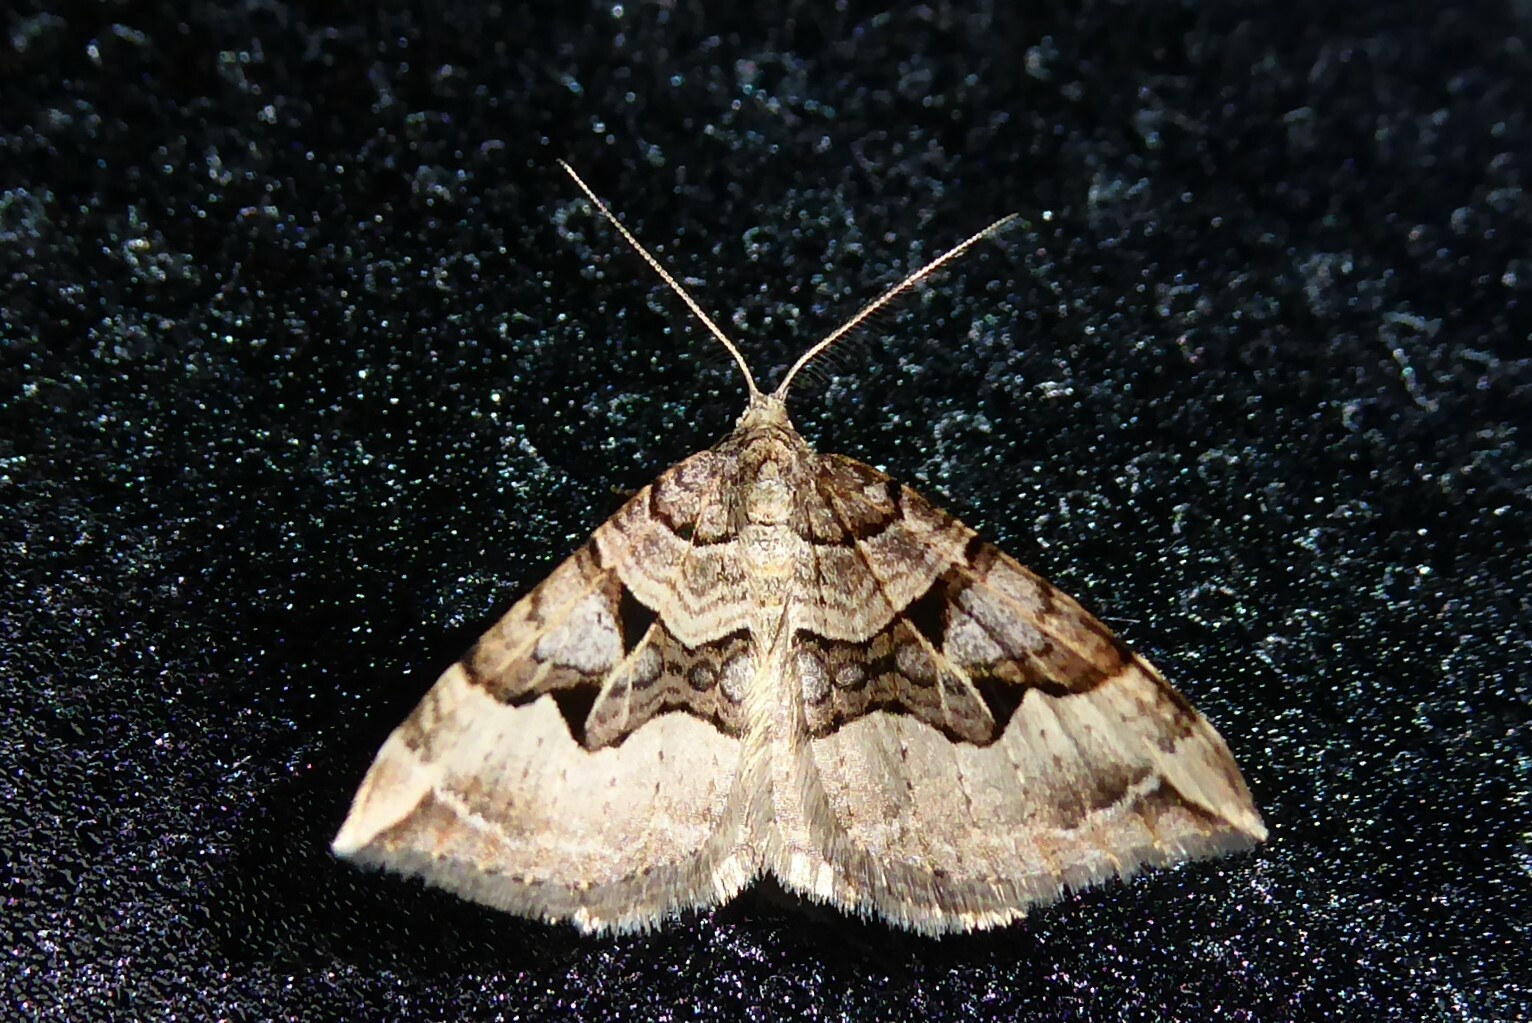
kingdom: Animalia
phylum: Arthropoda
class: Insecta
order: Lepidoptera
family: Geometridae
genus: Xanthorhoe
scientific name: Xanthorhoe semifissata
